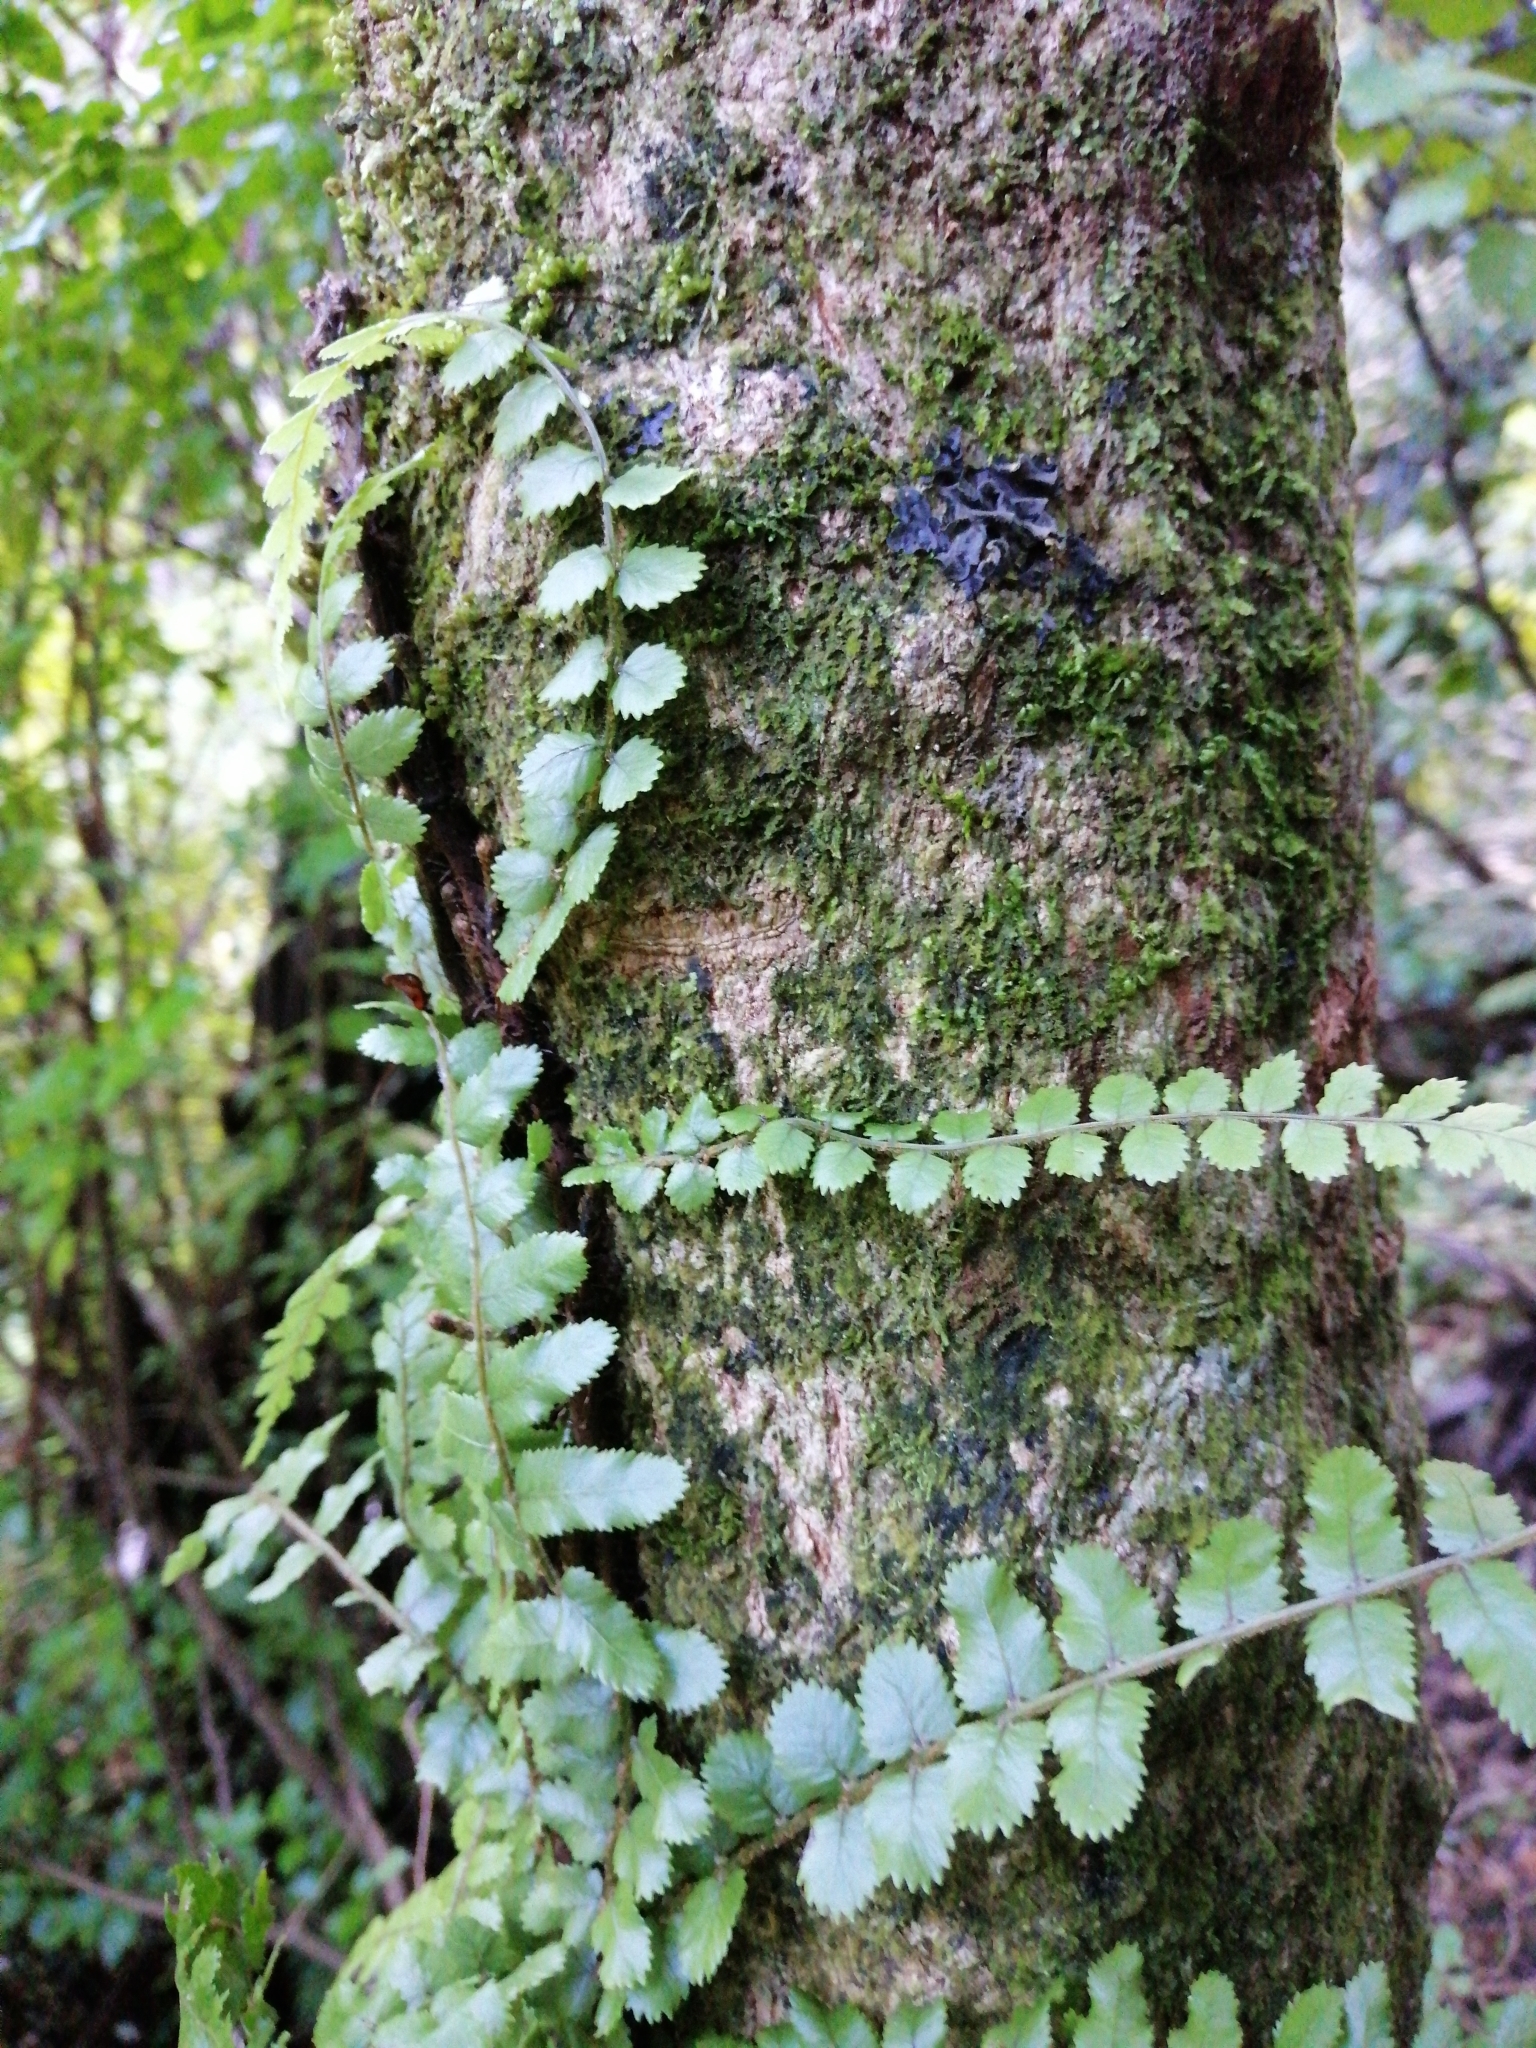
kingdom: Plantae
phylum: Tracheophyta
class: Polypodiopsida
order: Polypodiales
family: Blechnaceae
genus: Icarus
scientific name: Icarus filiformis
